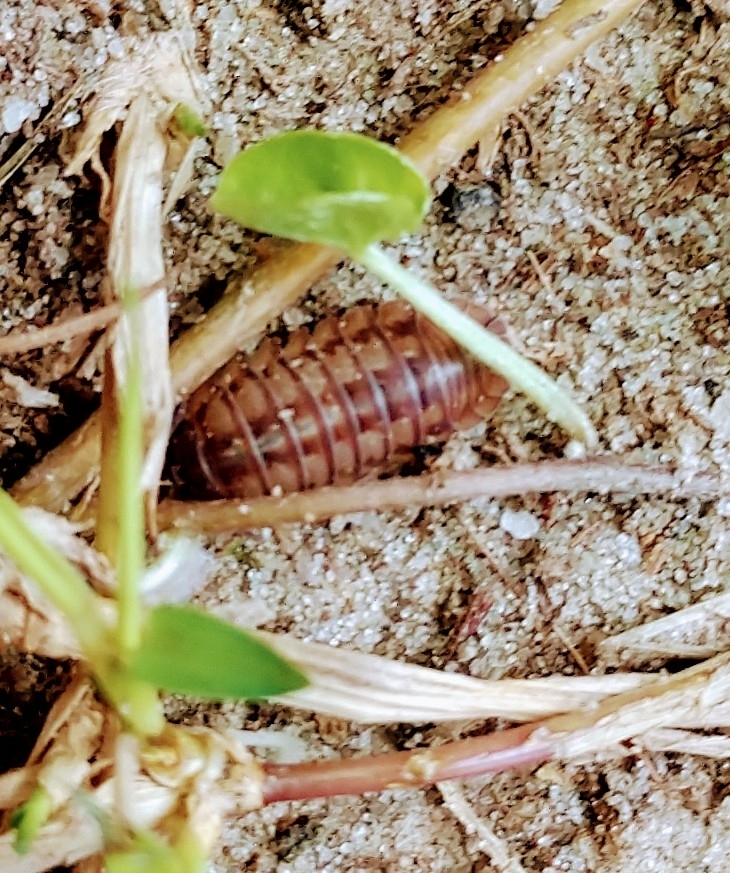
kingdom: Animalia
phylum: Arthropoda
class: Malacostraca
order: Isopoda
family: Armadillidiidae
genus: Armadillidium
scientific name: Armadillidium nasatum
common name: Isopod
